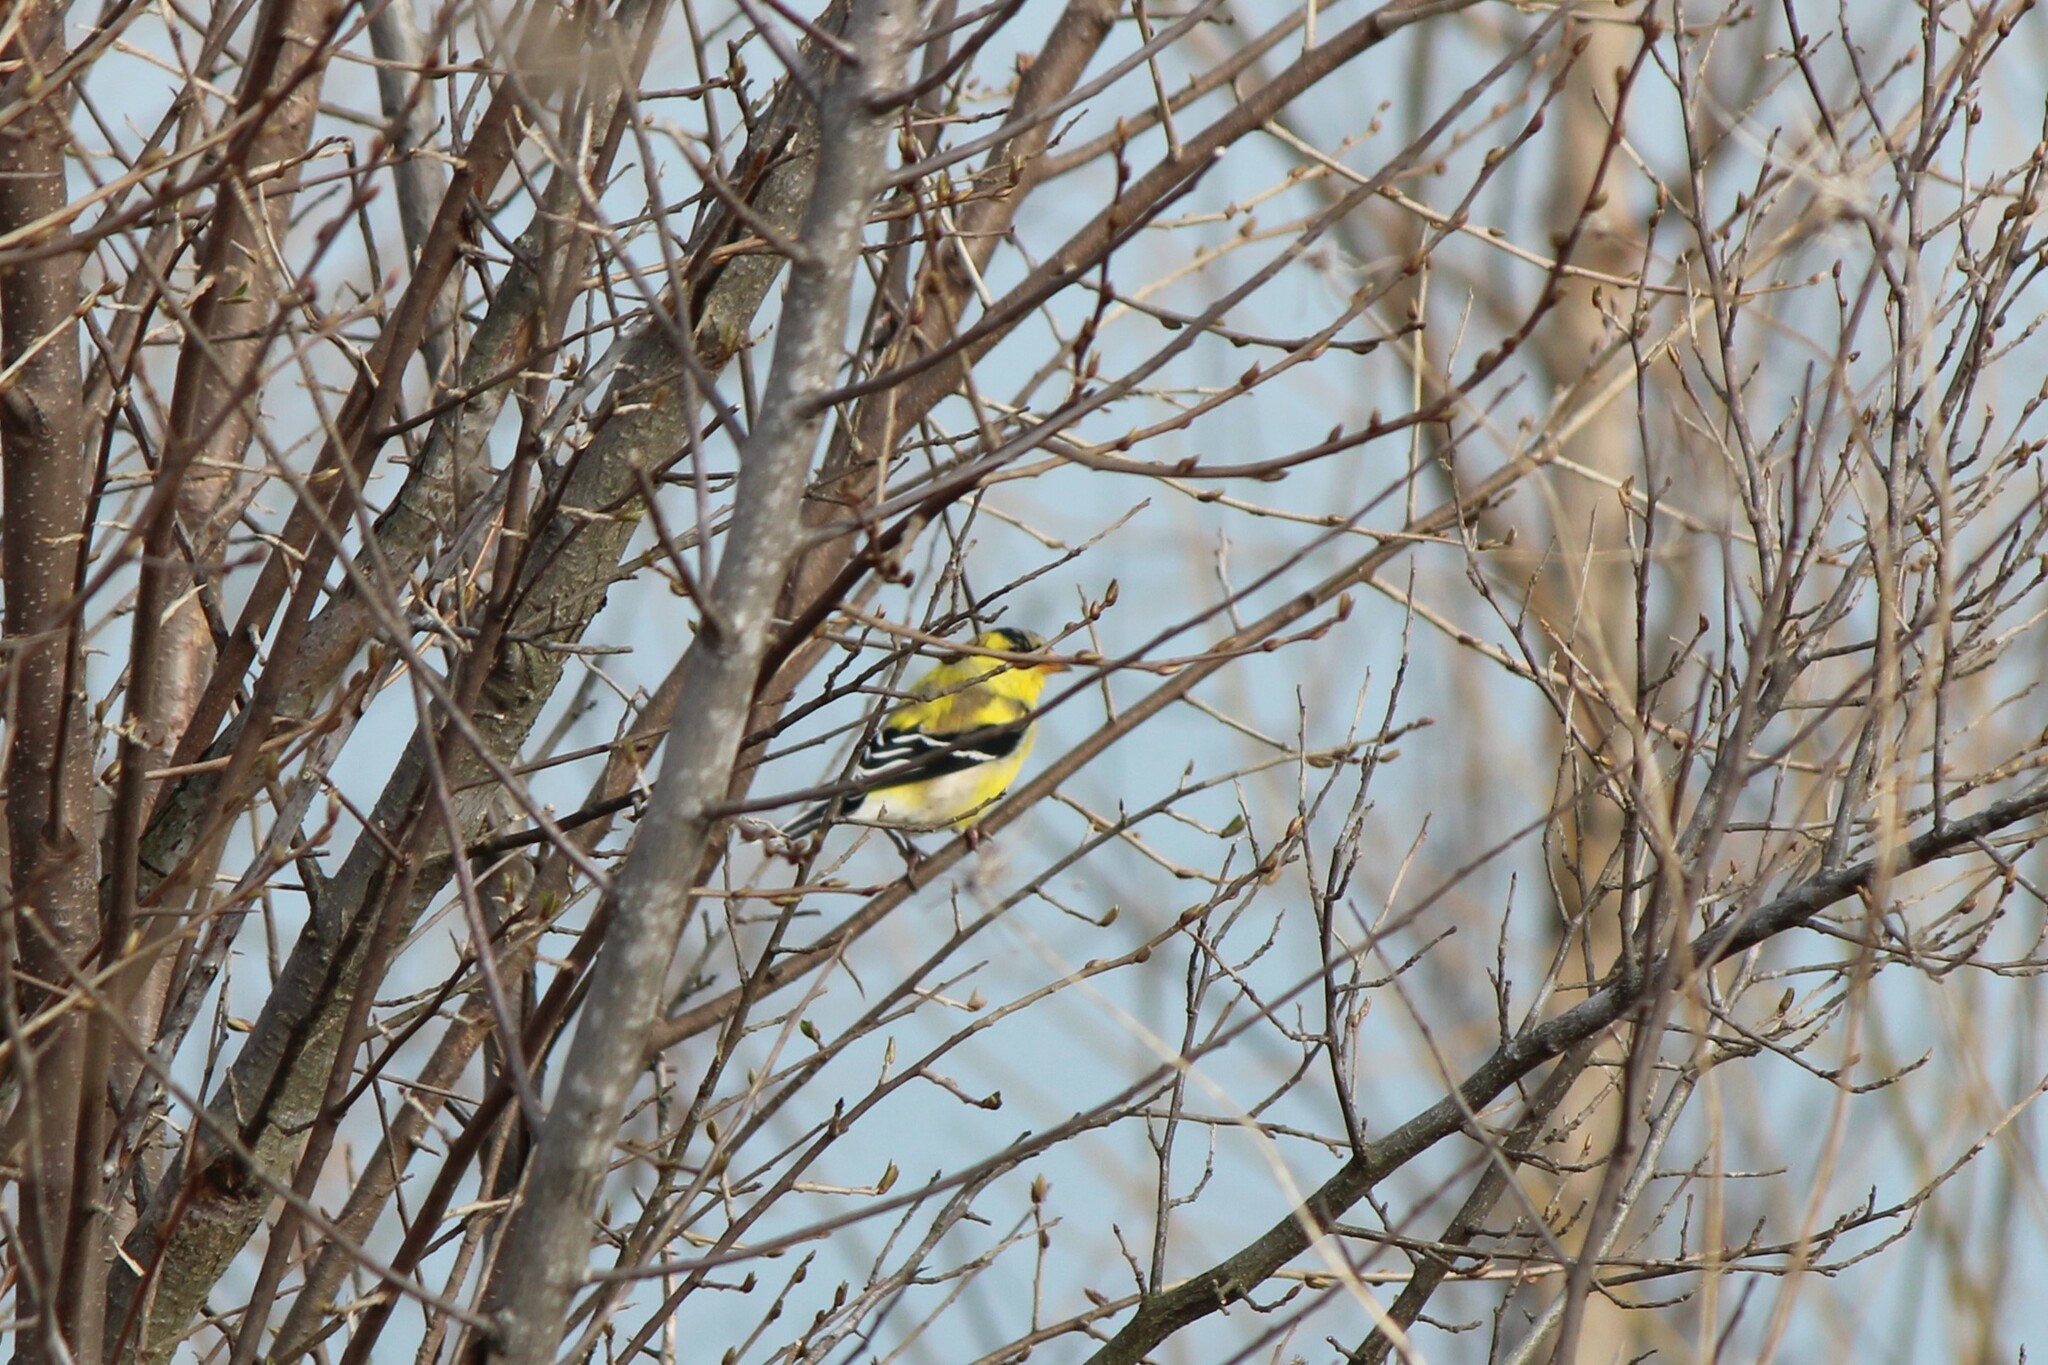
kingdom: Animalia
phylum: Chordata
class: Aves
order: Passeriformes
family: Fringillidae
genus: Spinus
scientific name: Spinus tristis
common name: American goldfinch
